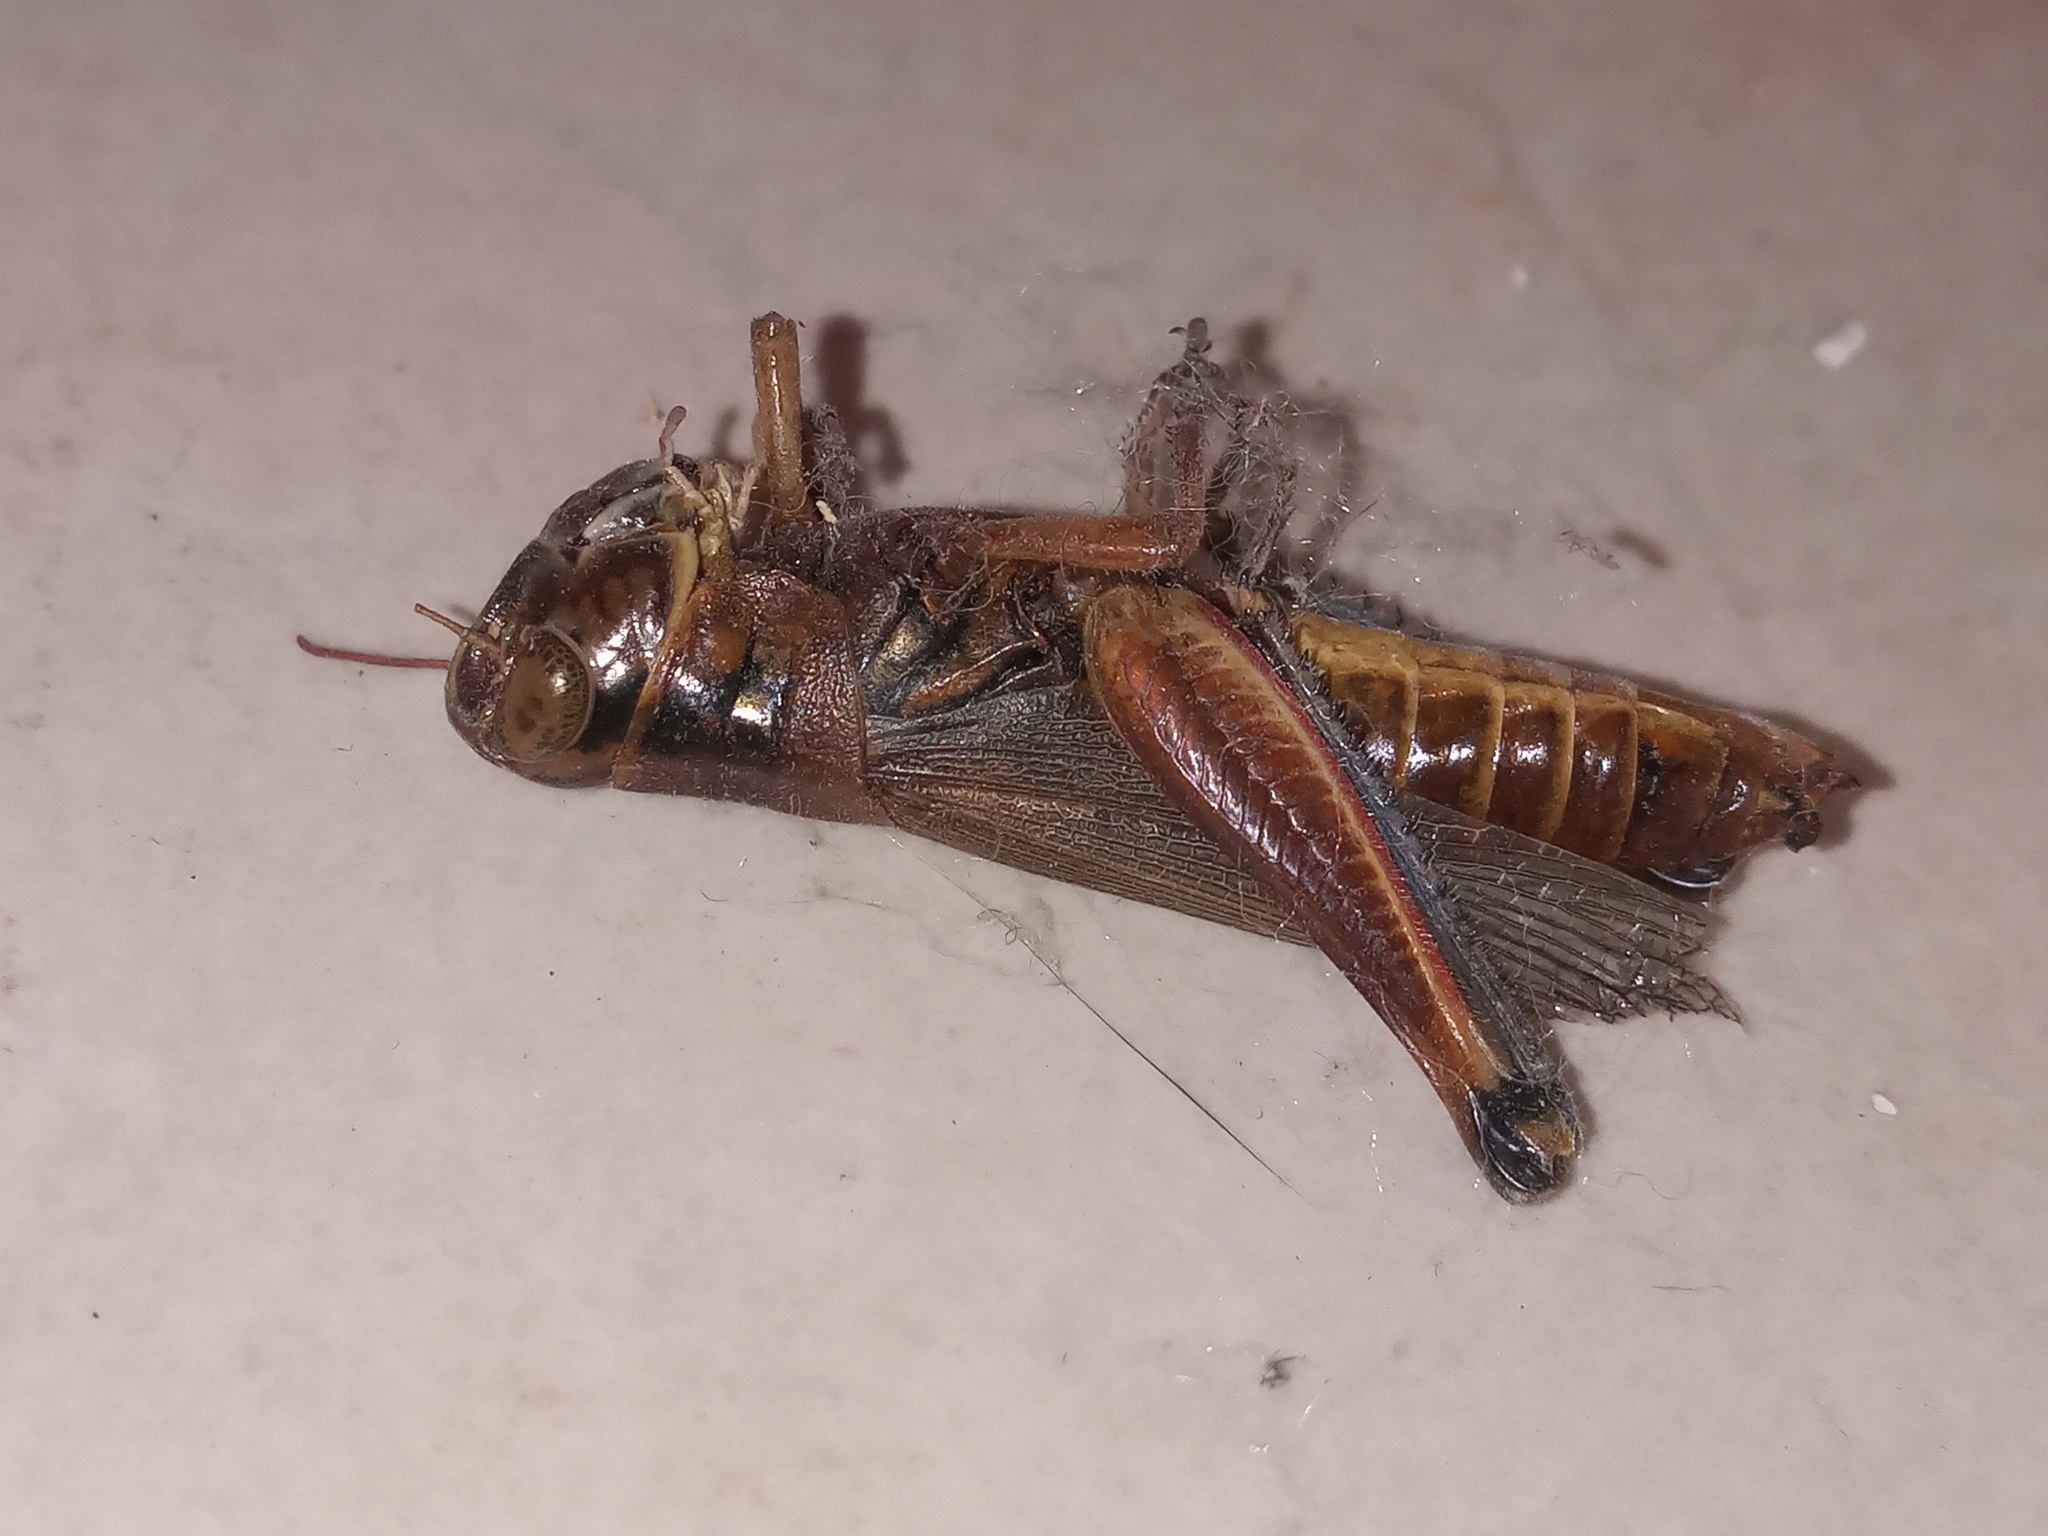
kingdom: Animalia
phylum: Arthropoda
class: Insecta
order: Orthoptera
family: Acrididae
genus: Phoetaliotes
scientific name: Phoetaliotes nebrascensis
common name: Large-headed grasshopper
